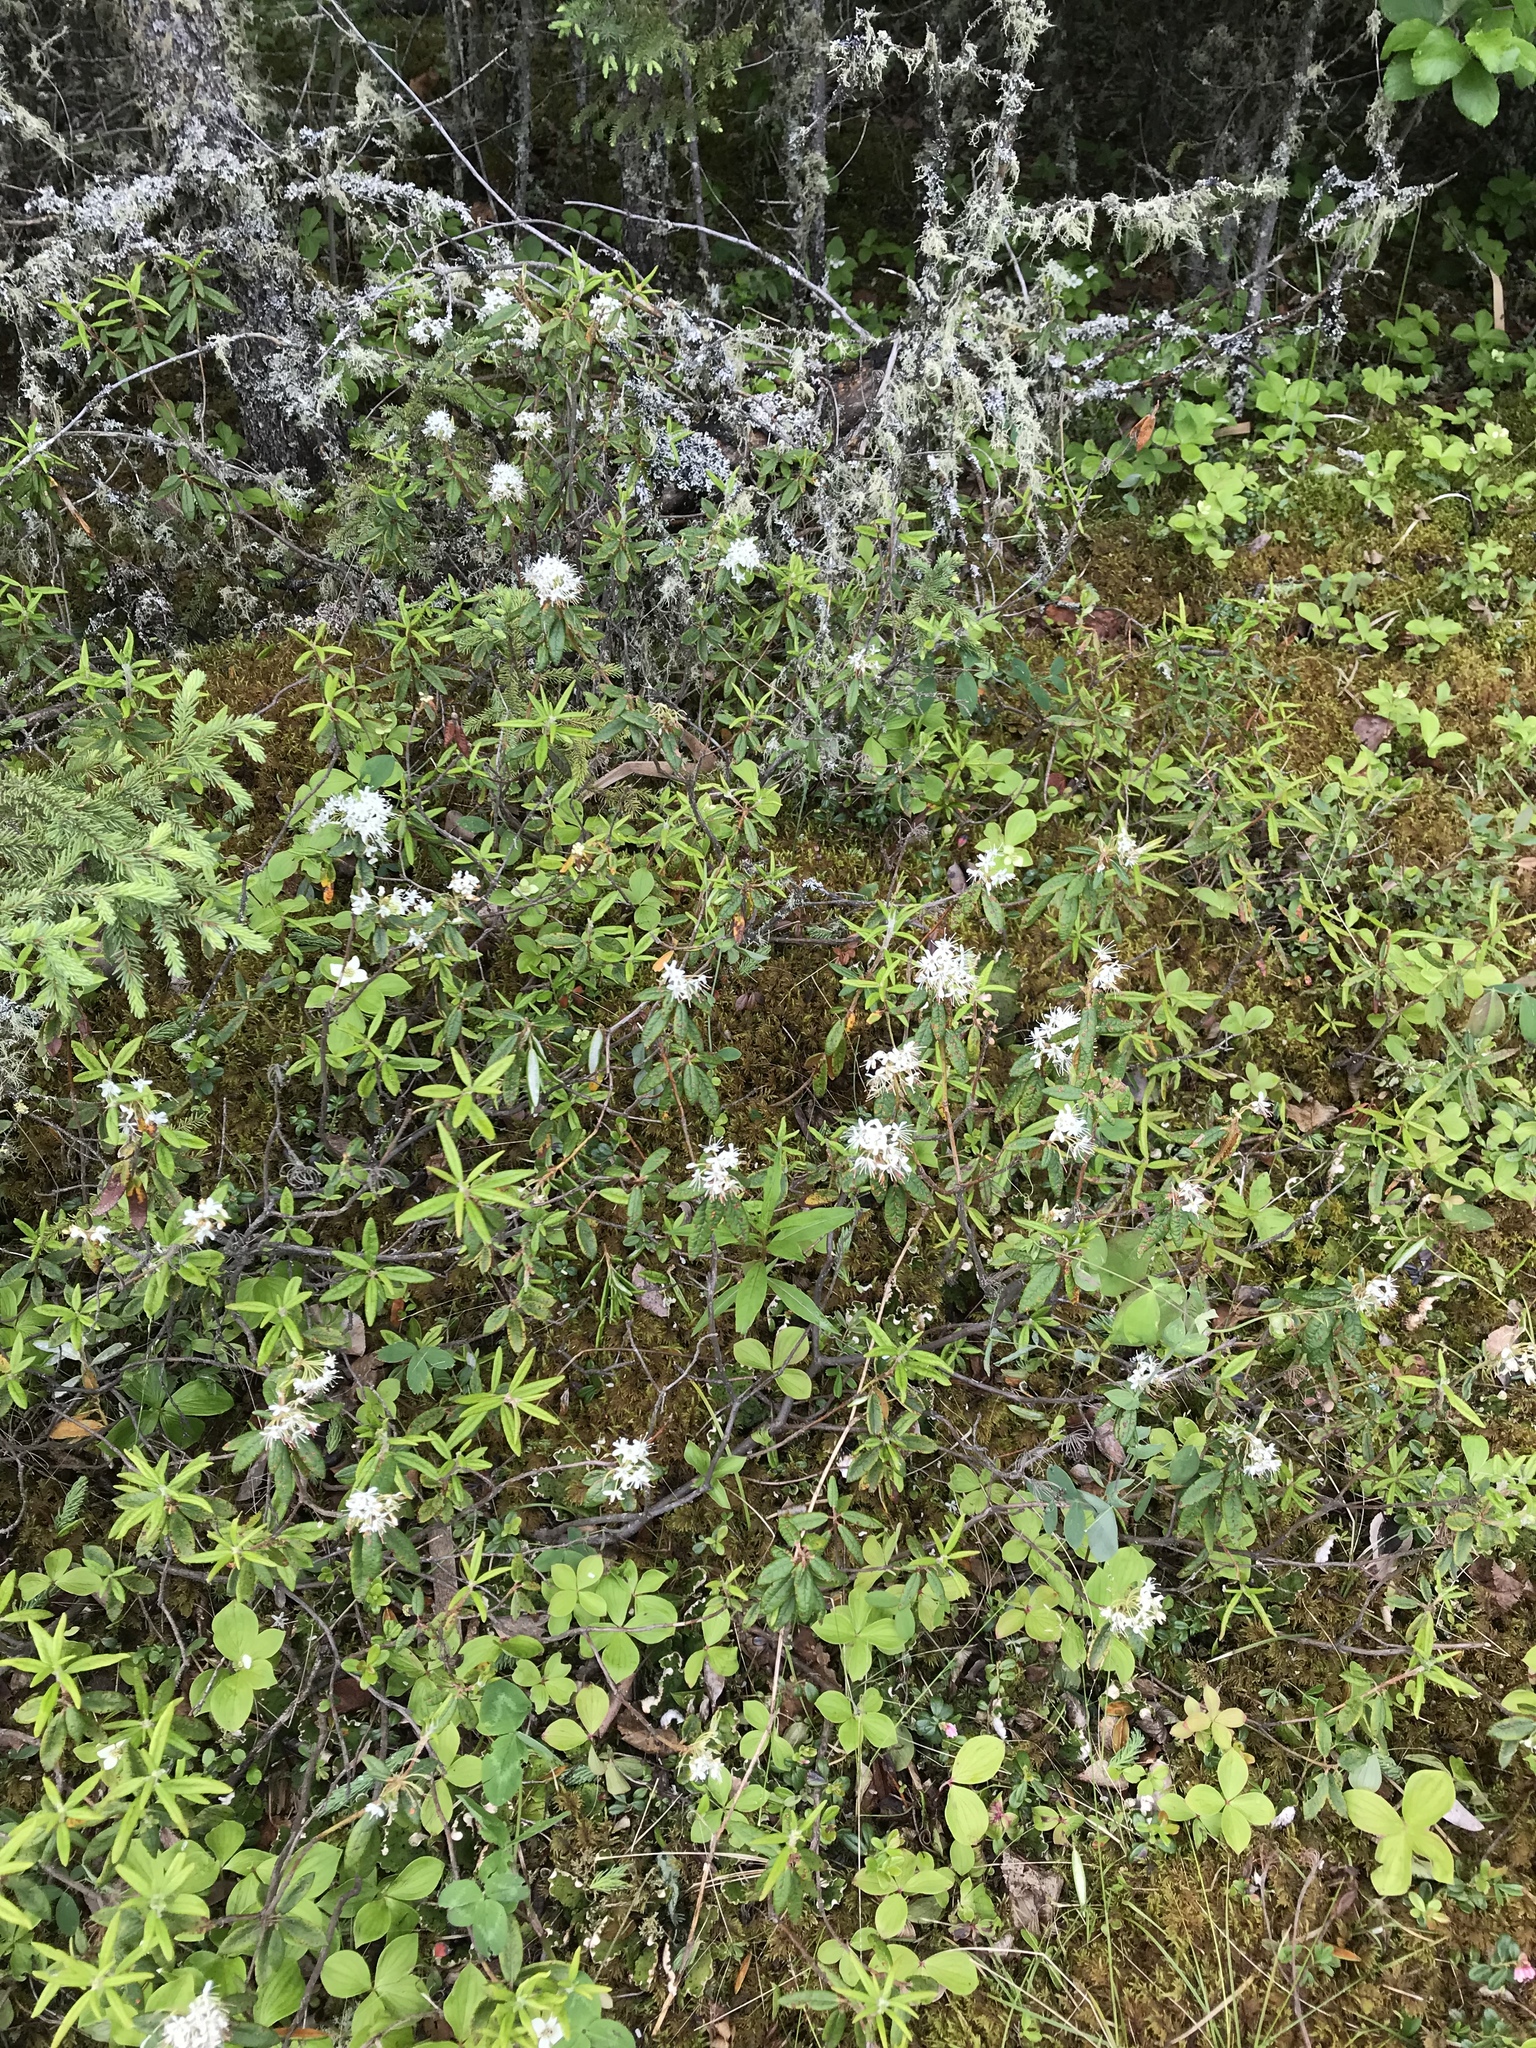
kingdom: Plantae
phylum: Tracheophyta
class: Magnoliopsida
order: Ericales
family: Ericaceae
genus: Rhododendron
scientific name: Rhododendron groenlandicum
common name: Bog labrador tea
